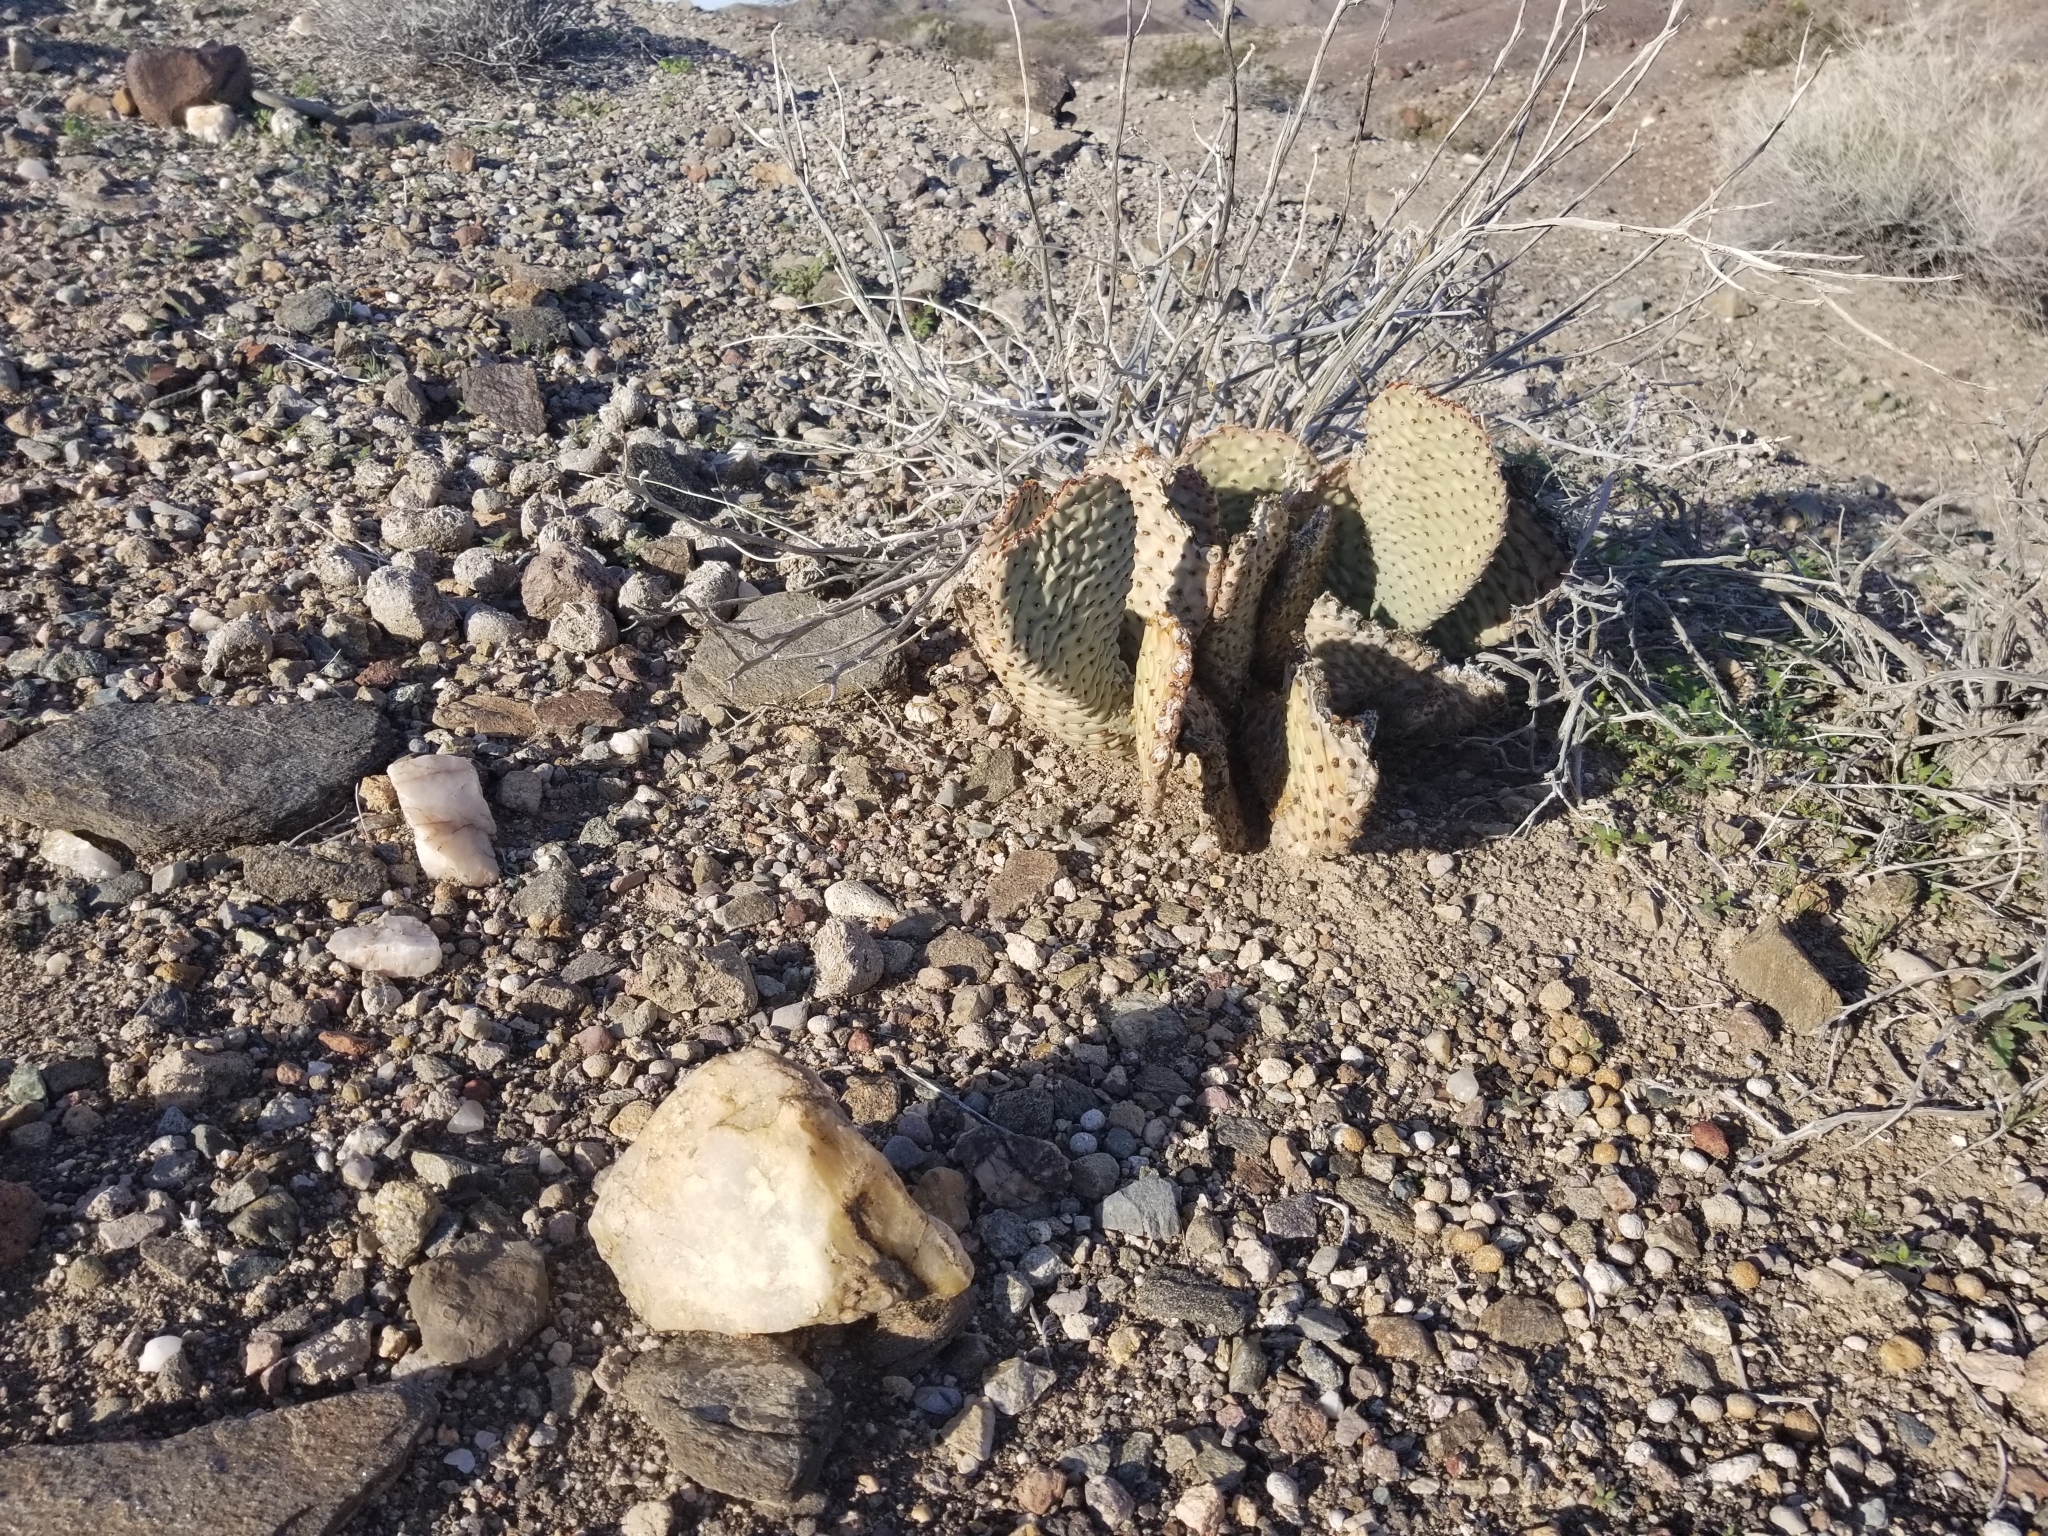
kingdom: Plantae
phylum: Tracheophyta
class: Magnoliopsida
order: Caryophyllales
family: Cactaceae
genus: Opuntia
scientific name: Opuntia basilaris
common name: Beavertail prickly-pear
